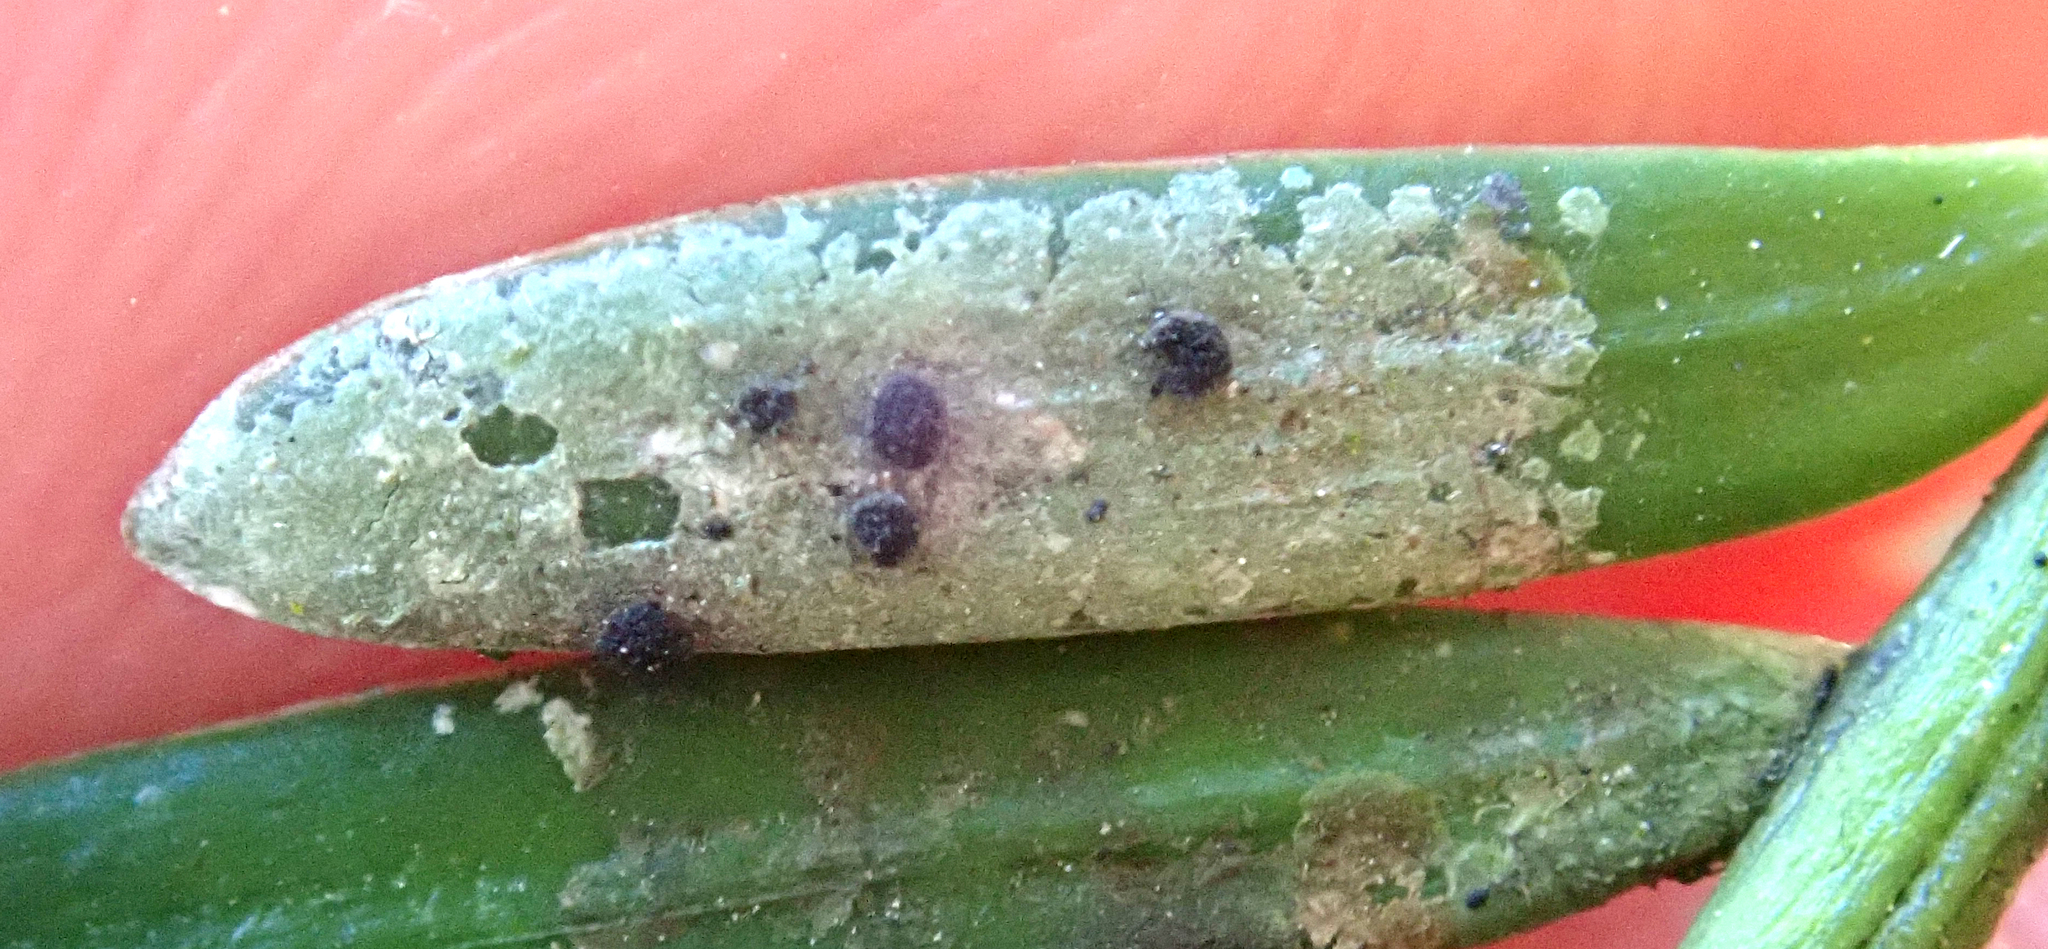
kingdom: Fungi
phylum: Ascomycota
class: Lecanoromycetes
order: Lecanorales
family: Byssolomataceae
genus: Calopadia
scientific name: Calopadia subcoerulescens
